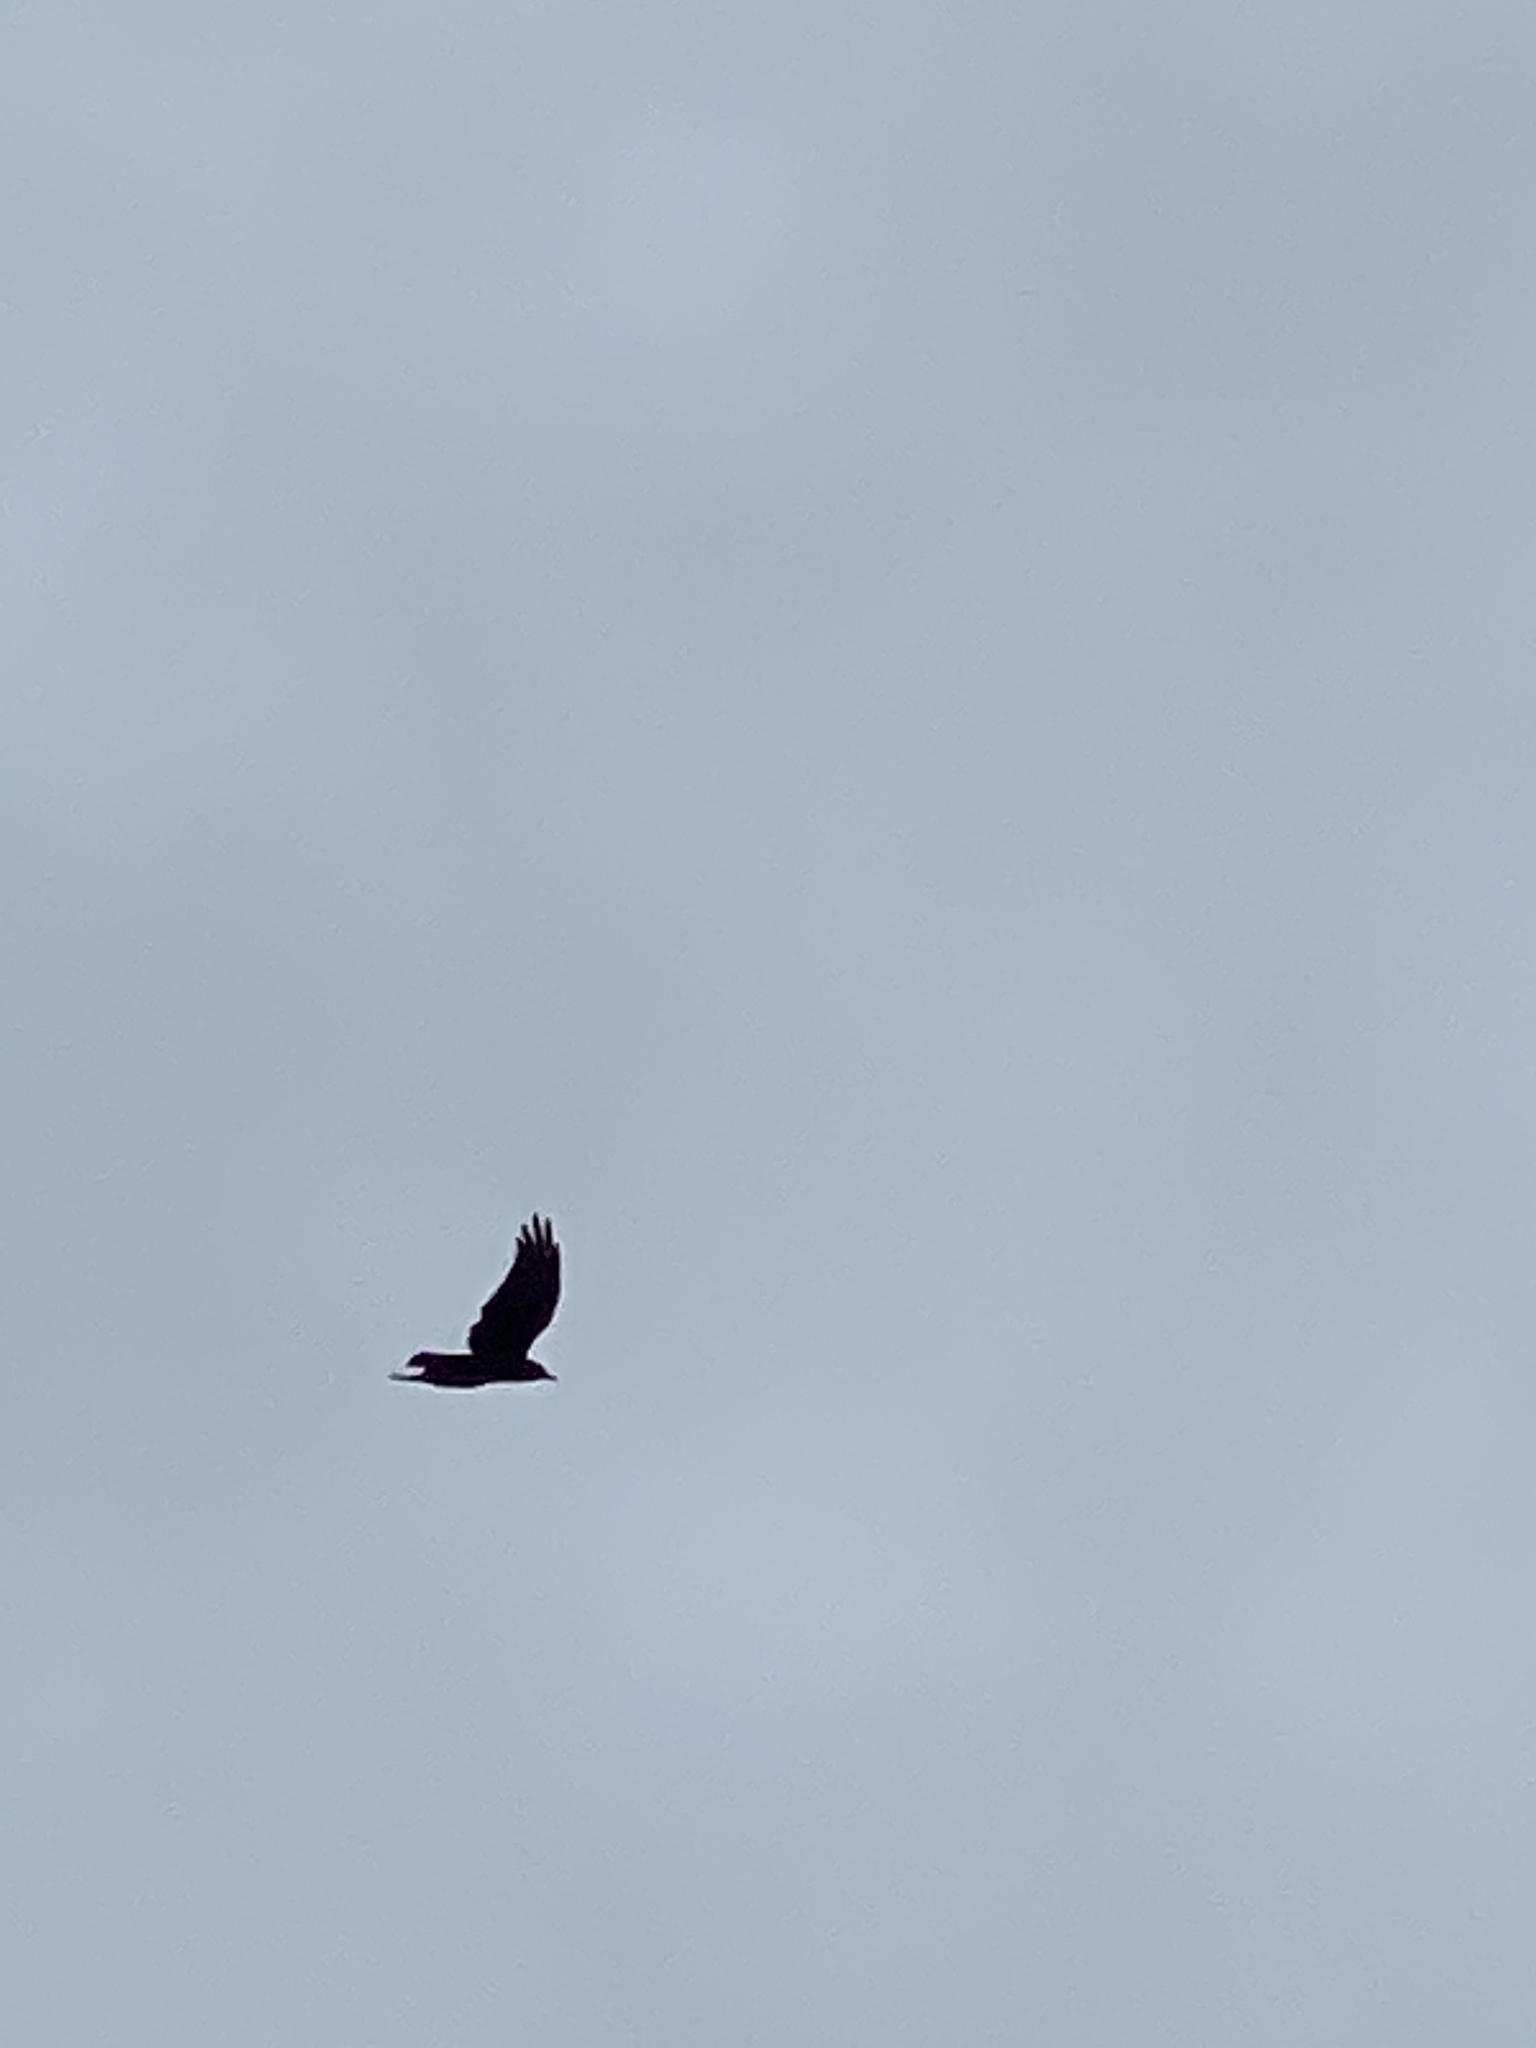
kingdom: Animalia
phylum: Chordata
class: Aves
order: Passeriformes
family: Corvidae
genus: Corvus
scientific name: Corvus brachyrhynchos
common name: American crow
